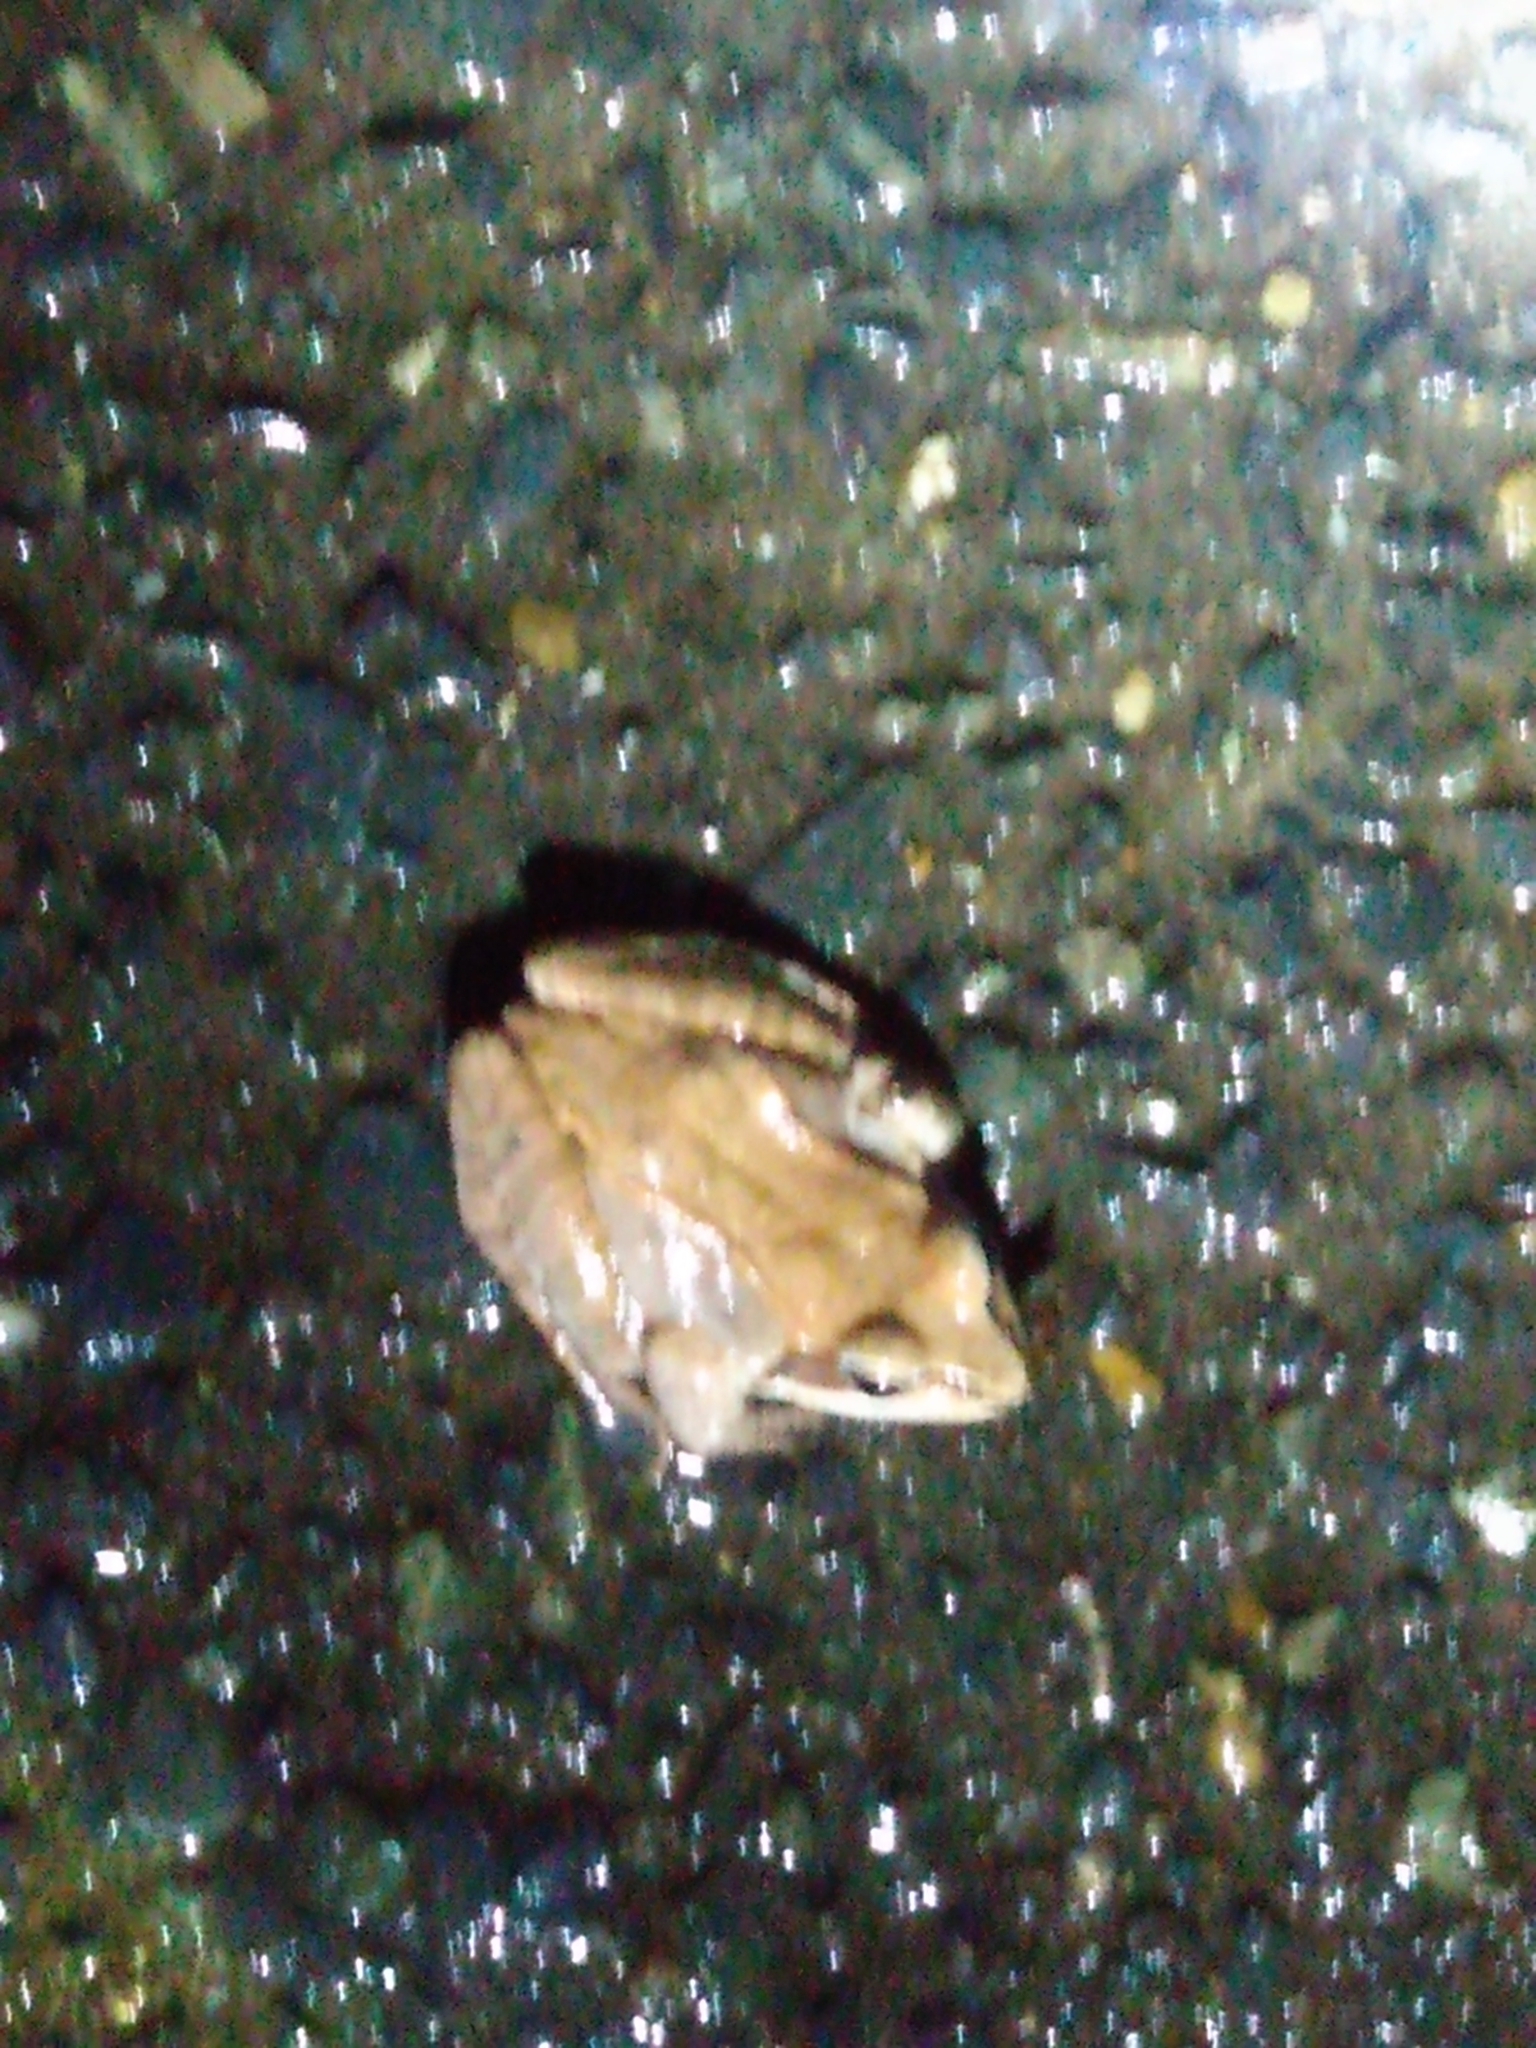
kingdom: Animalia
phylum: Chordata
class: Amphibia
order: Anura
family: Ranidae
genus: Lithobates
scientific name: Lithobates sylvaticus
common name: Wood frog
